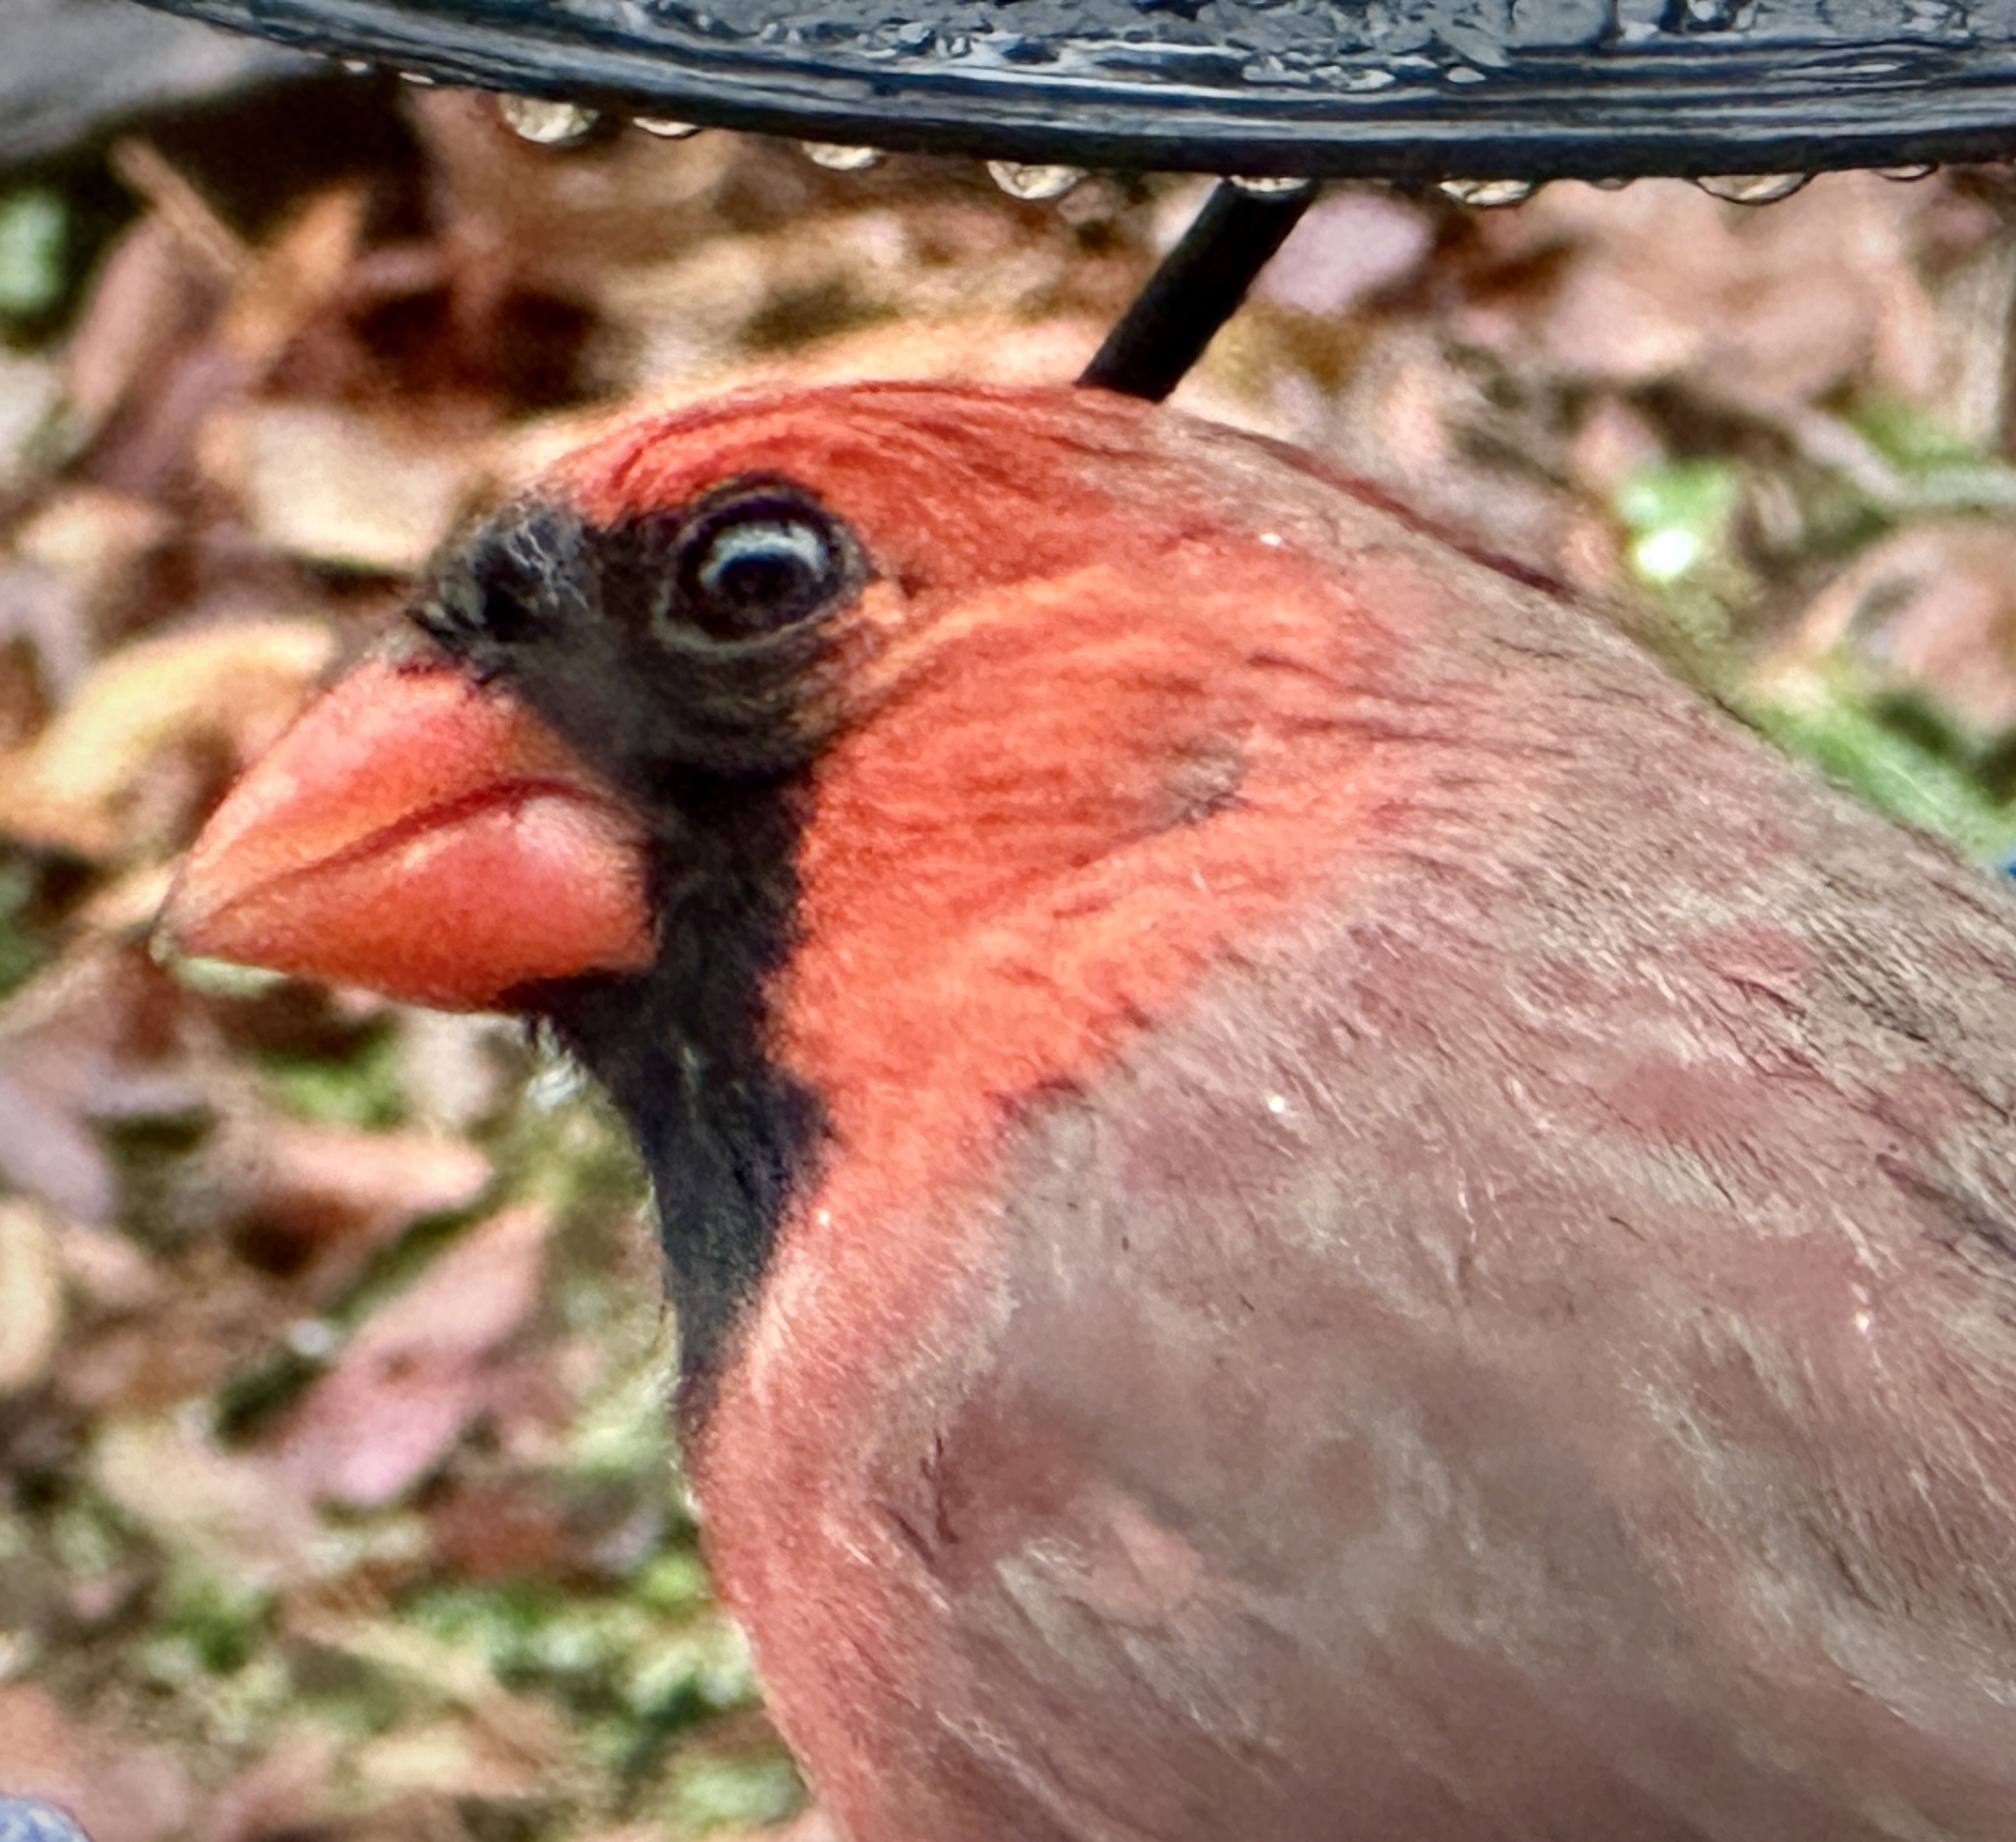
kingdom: Animalia
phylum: Chordata
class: Aves
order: Passeriformes
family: Cardinalidae
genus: Cardinalis
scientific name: Cardinalis cardinalis
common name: Northern cardinal
